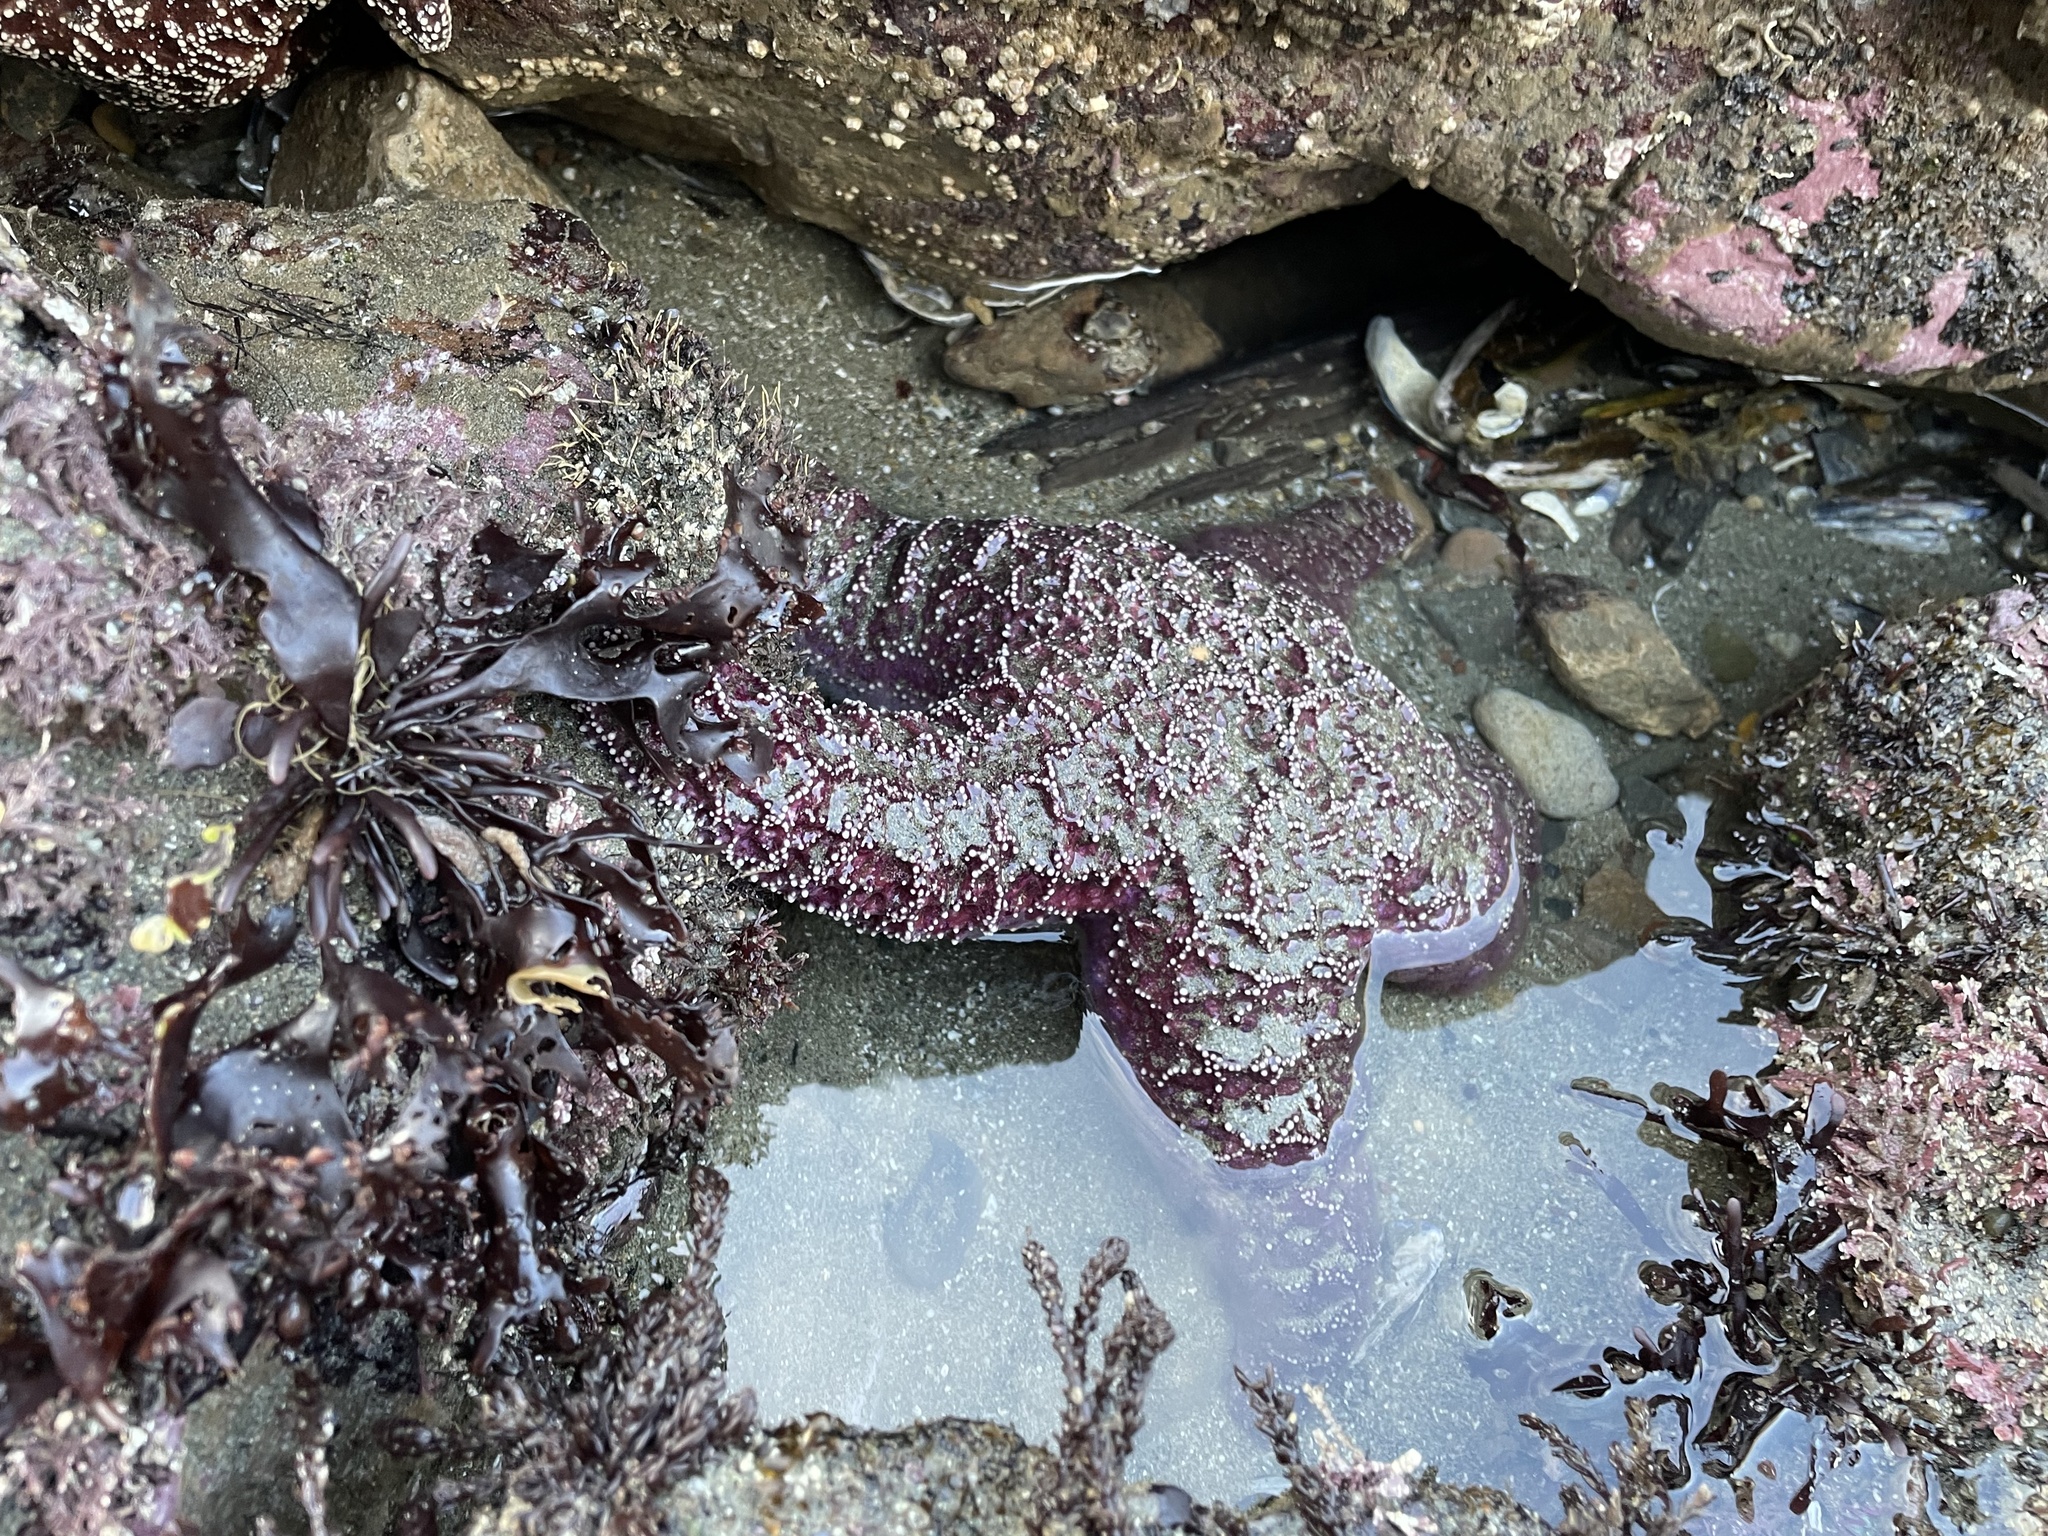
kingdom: Animalia
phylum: Echinodermata
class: Asteroidea
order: Forcipulatida
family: Asteriidae
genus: Pisaster
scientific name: Pisaster ochraceus
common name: Ochre stars
